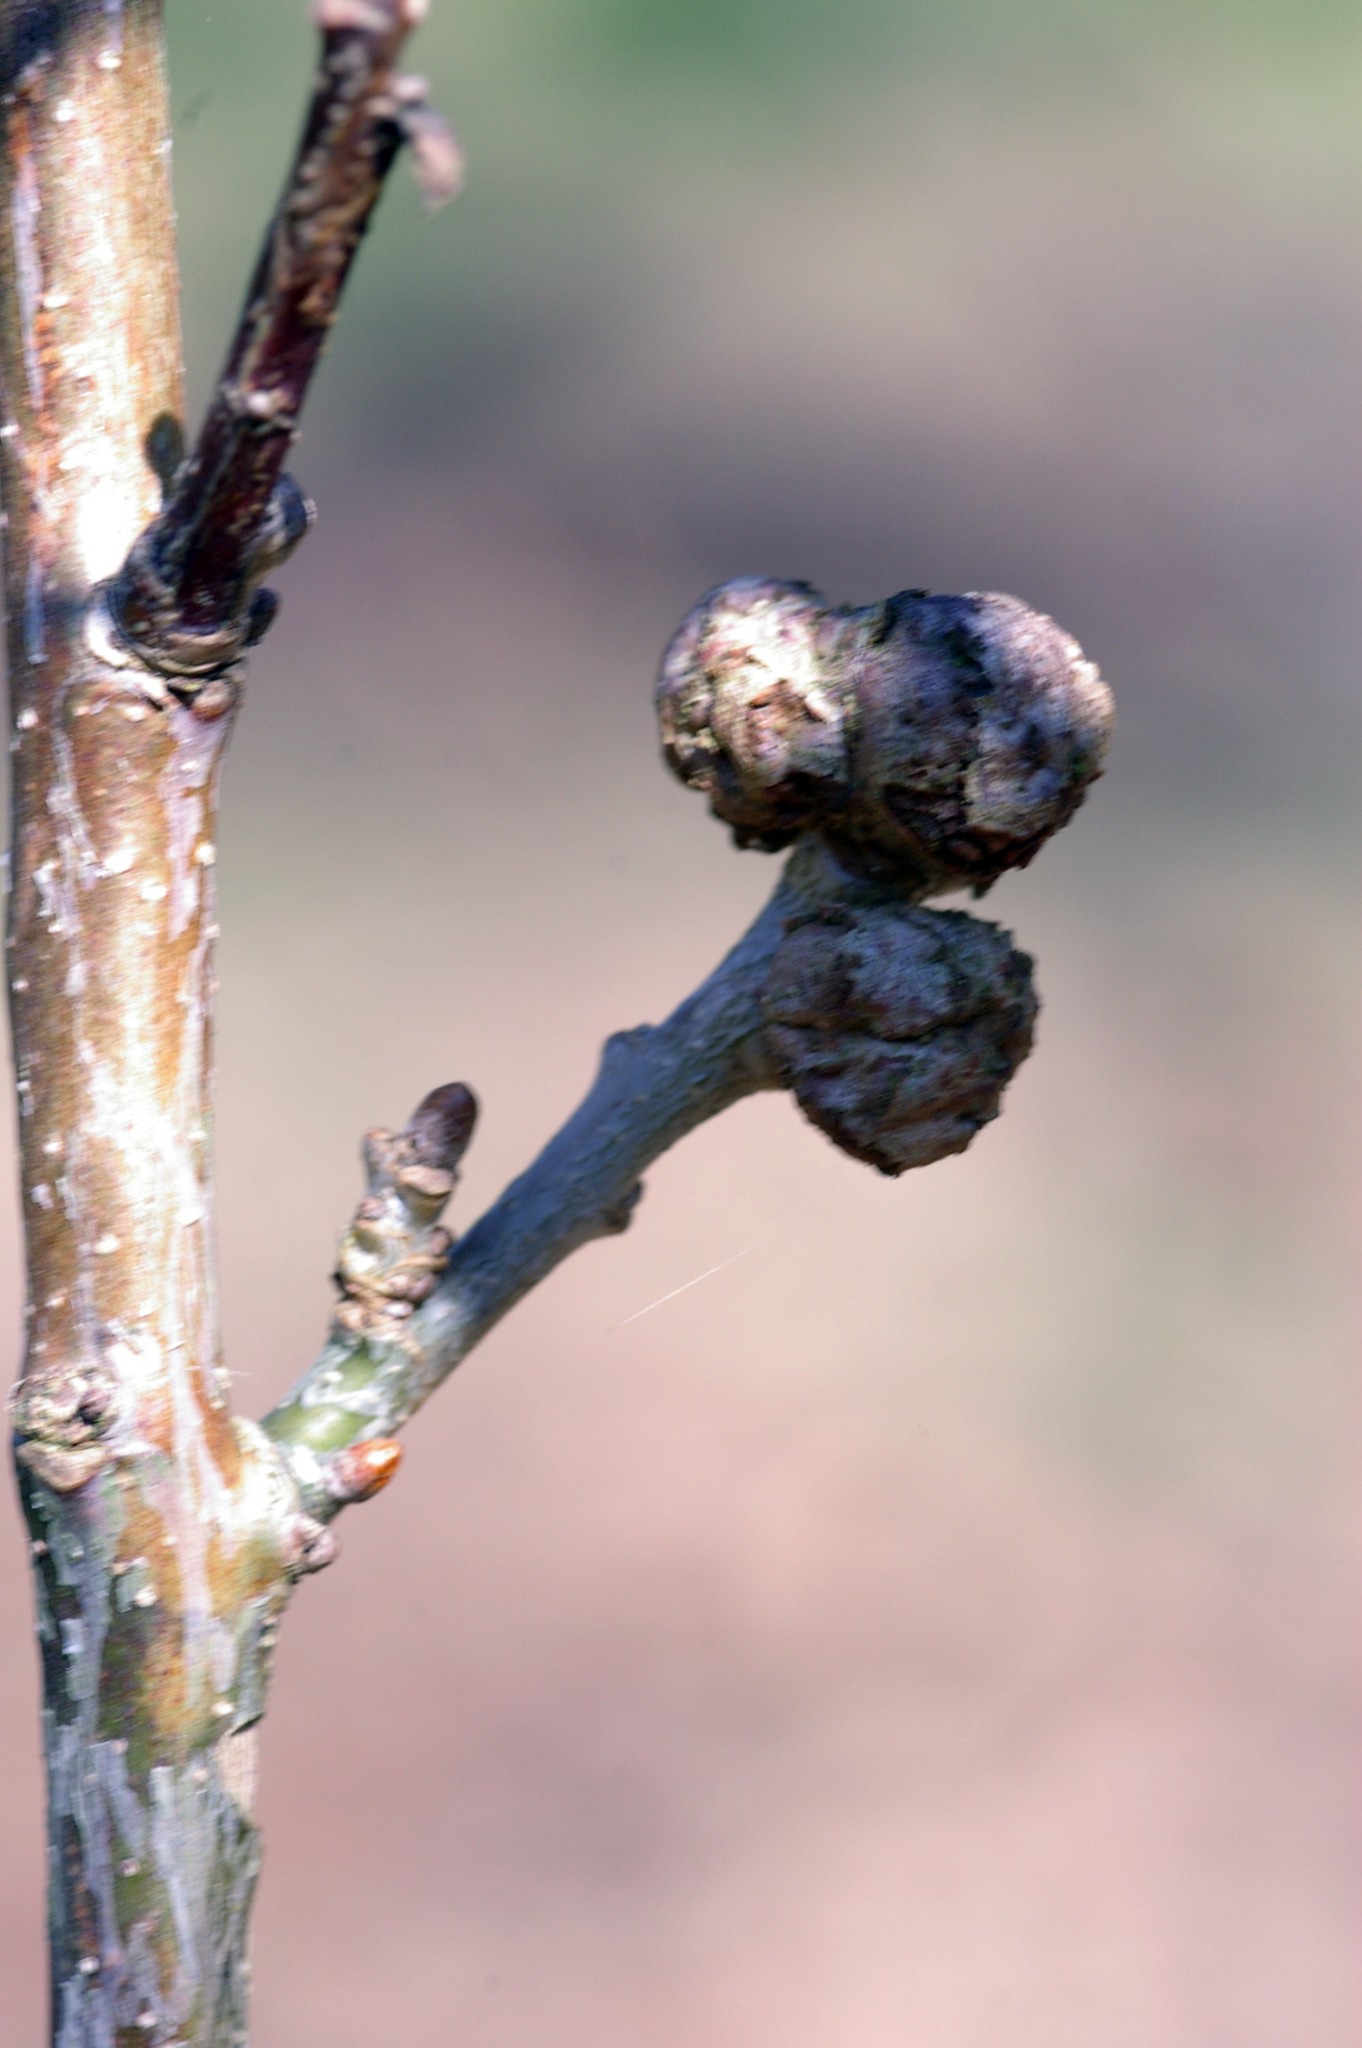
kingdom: Animalia
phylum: Arthropoda
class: Insecta
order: Hymenoptera
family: Cynipidae
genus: Andricus
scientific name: Andricus lignicolus
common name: Cola-nut gall
